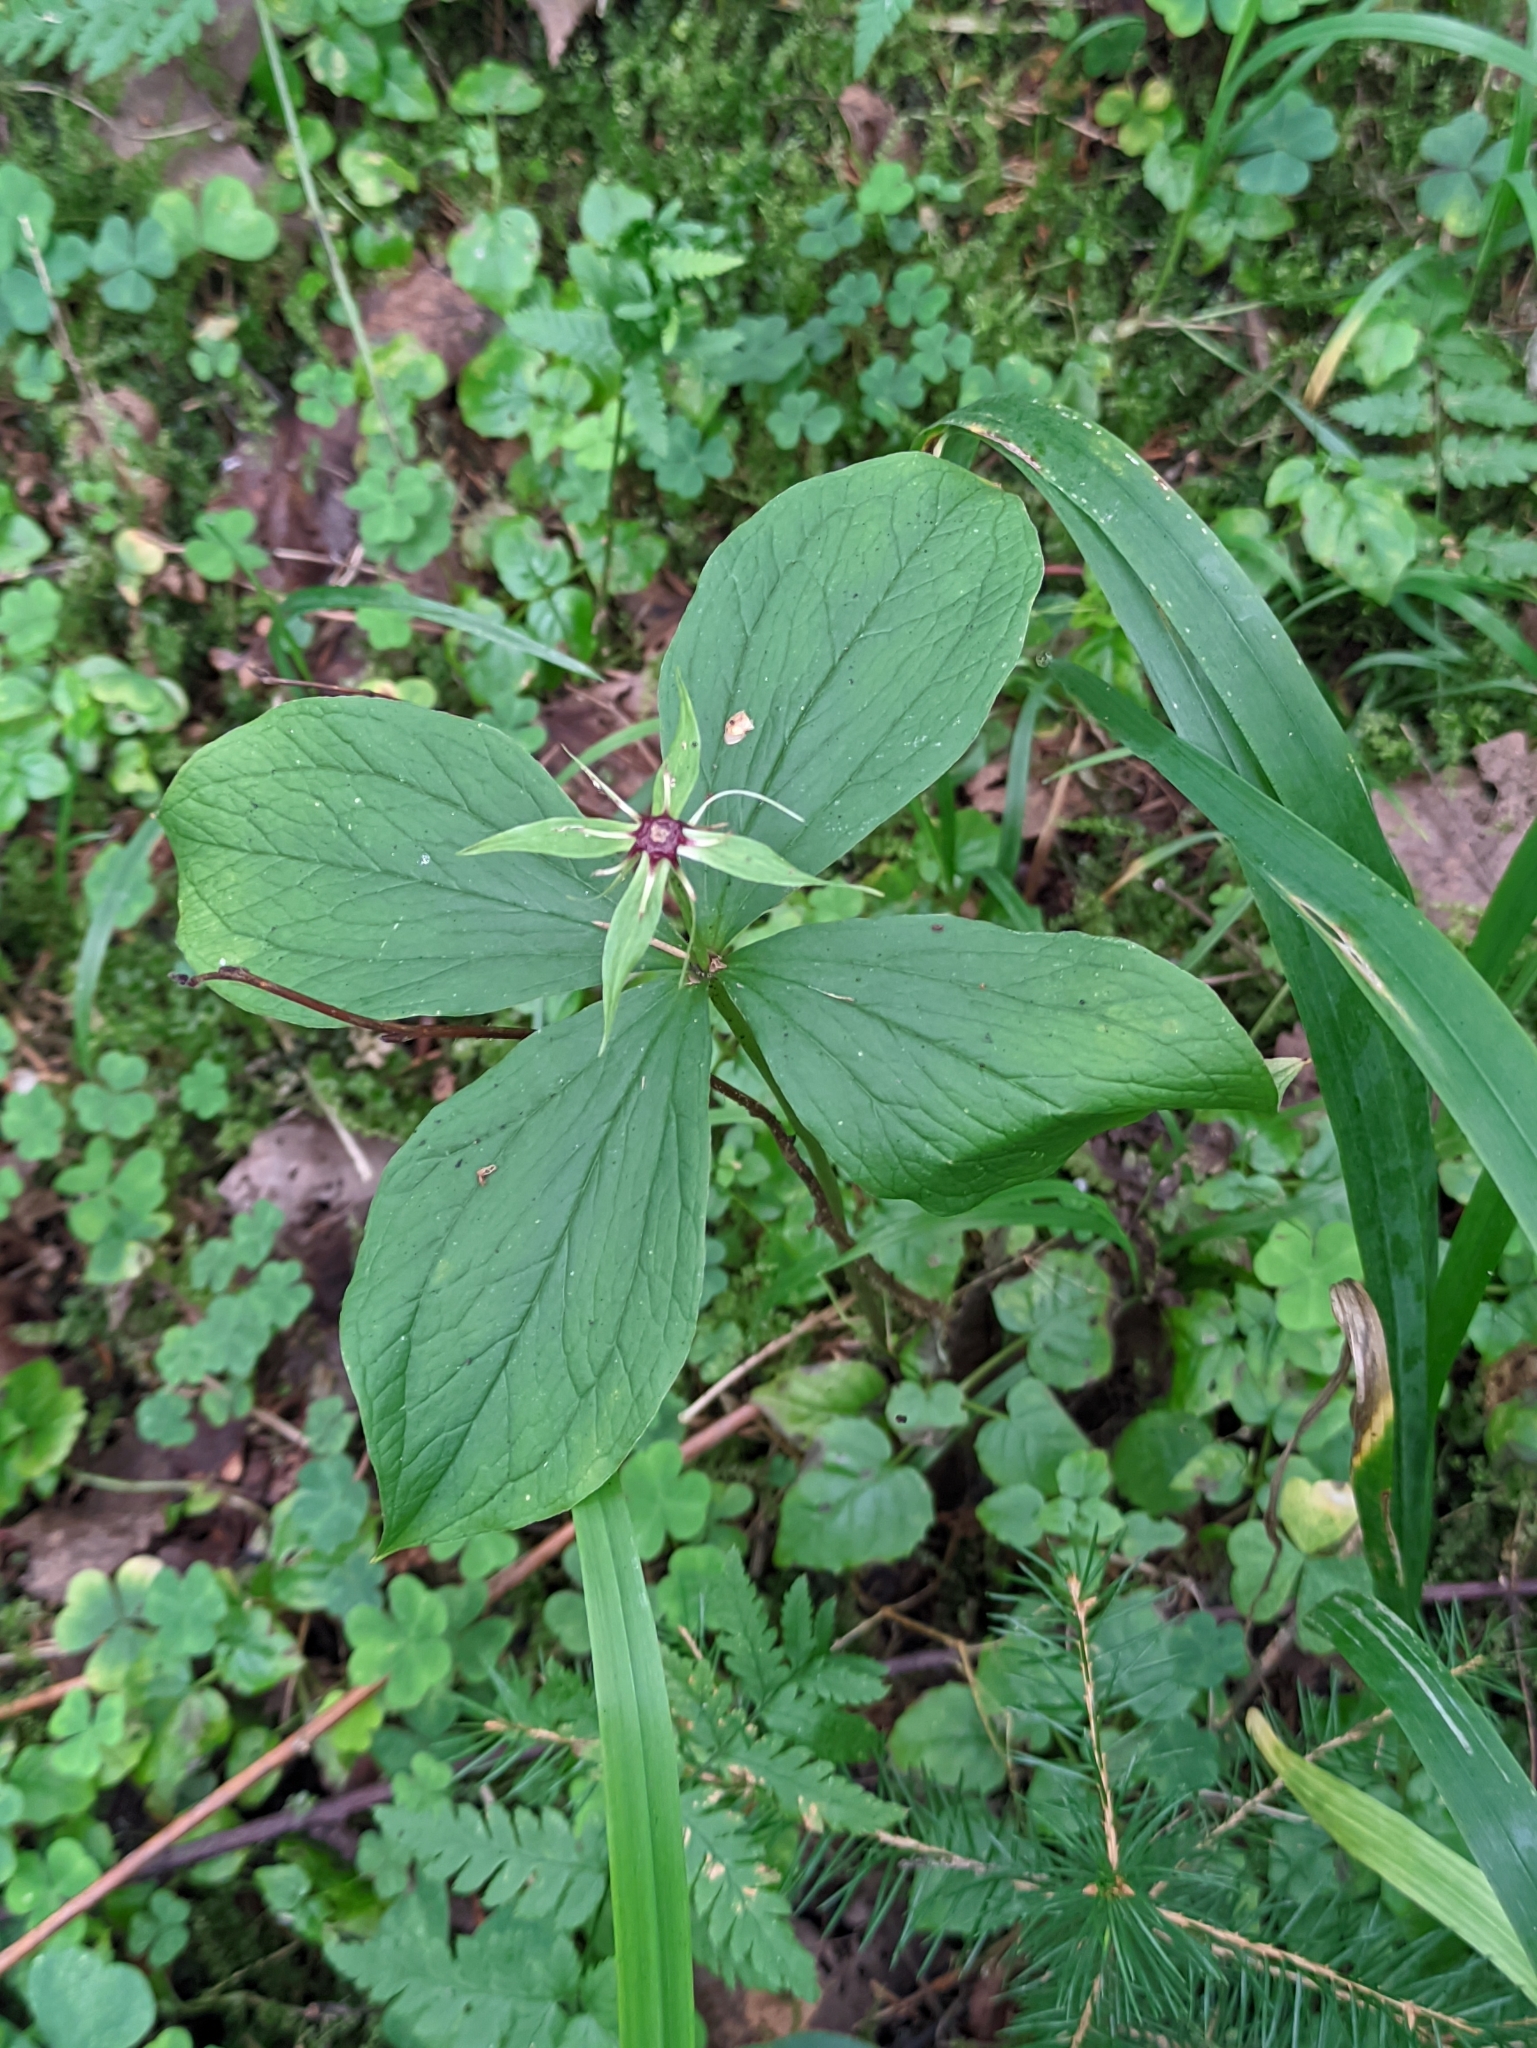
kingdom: Plantae
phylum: Tracheophyta
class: Liliopsida
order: Liliales
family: Melanthiaceae
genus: Paris
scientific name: Paris quadrifolia
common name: Herb-paris
